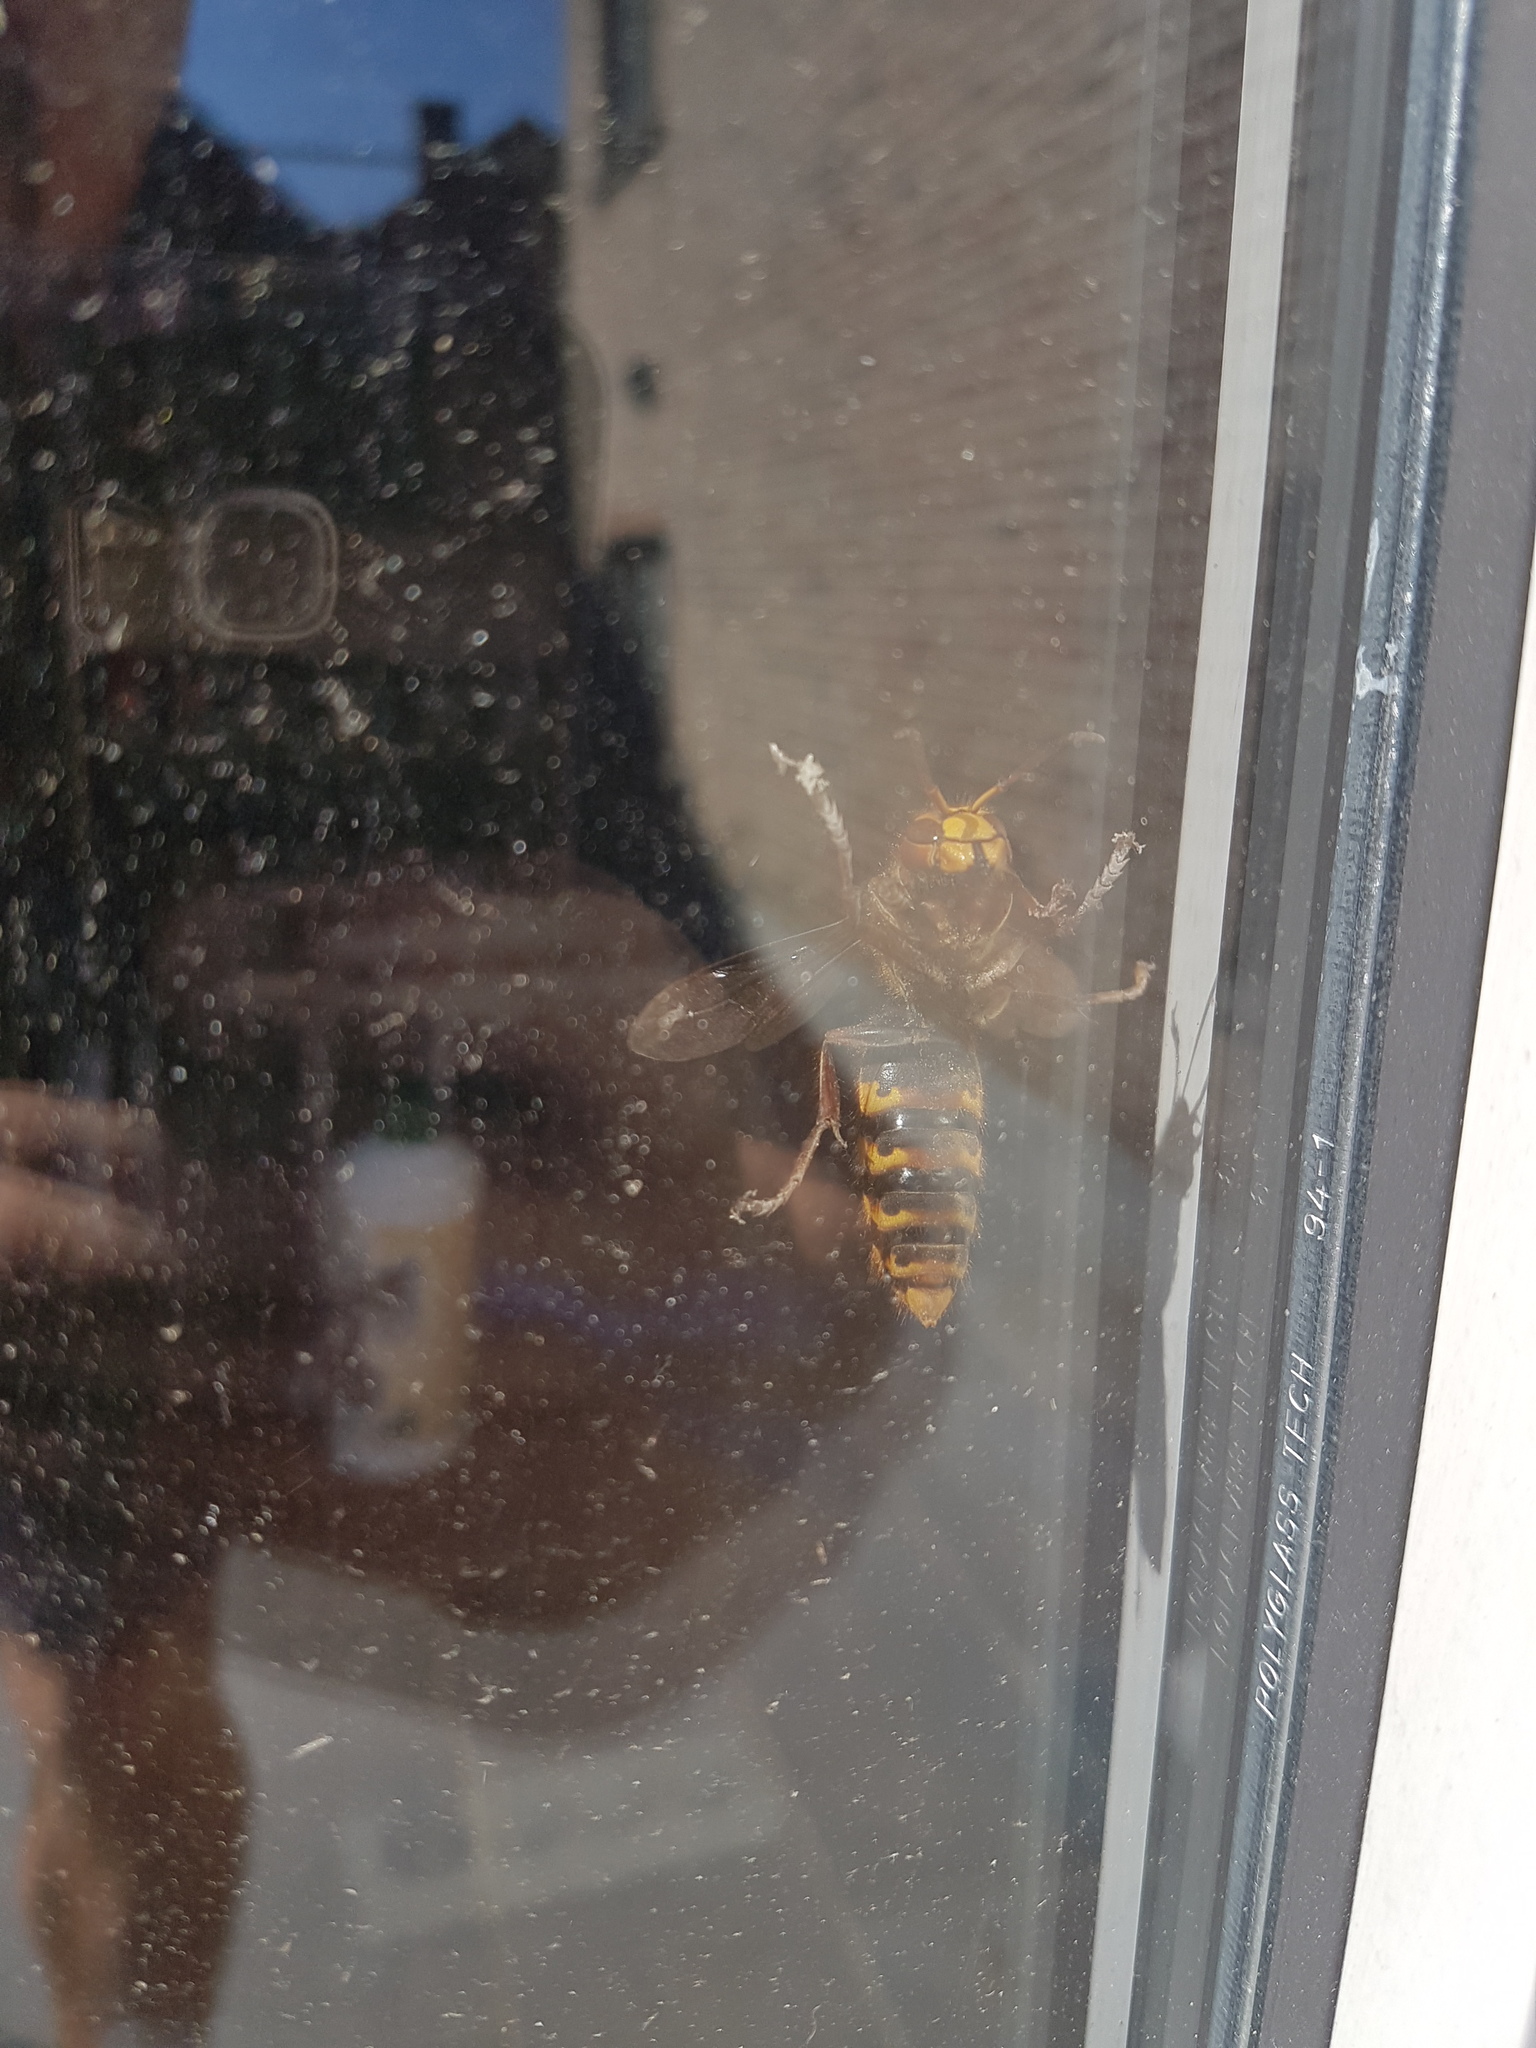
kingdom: Animalia
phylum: Arthropoda
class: Insecta
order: Hymenoptera
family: Vespidae
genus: Vespa
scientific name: Vespa crabro
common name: Hornet
